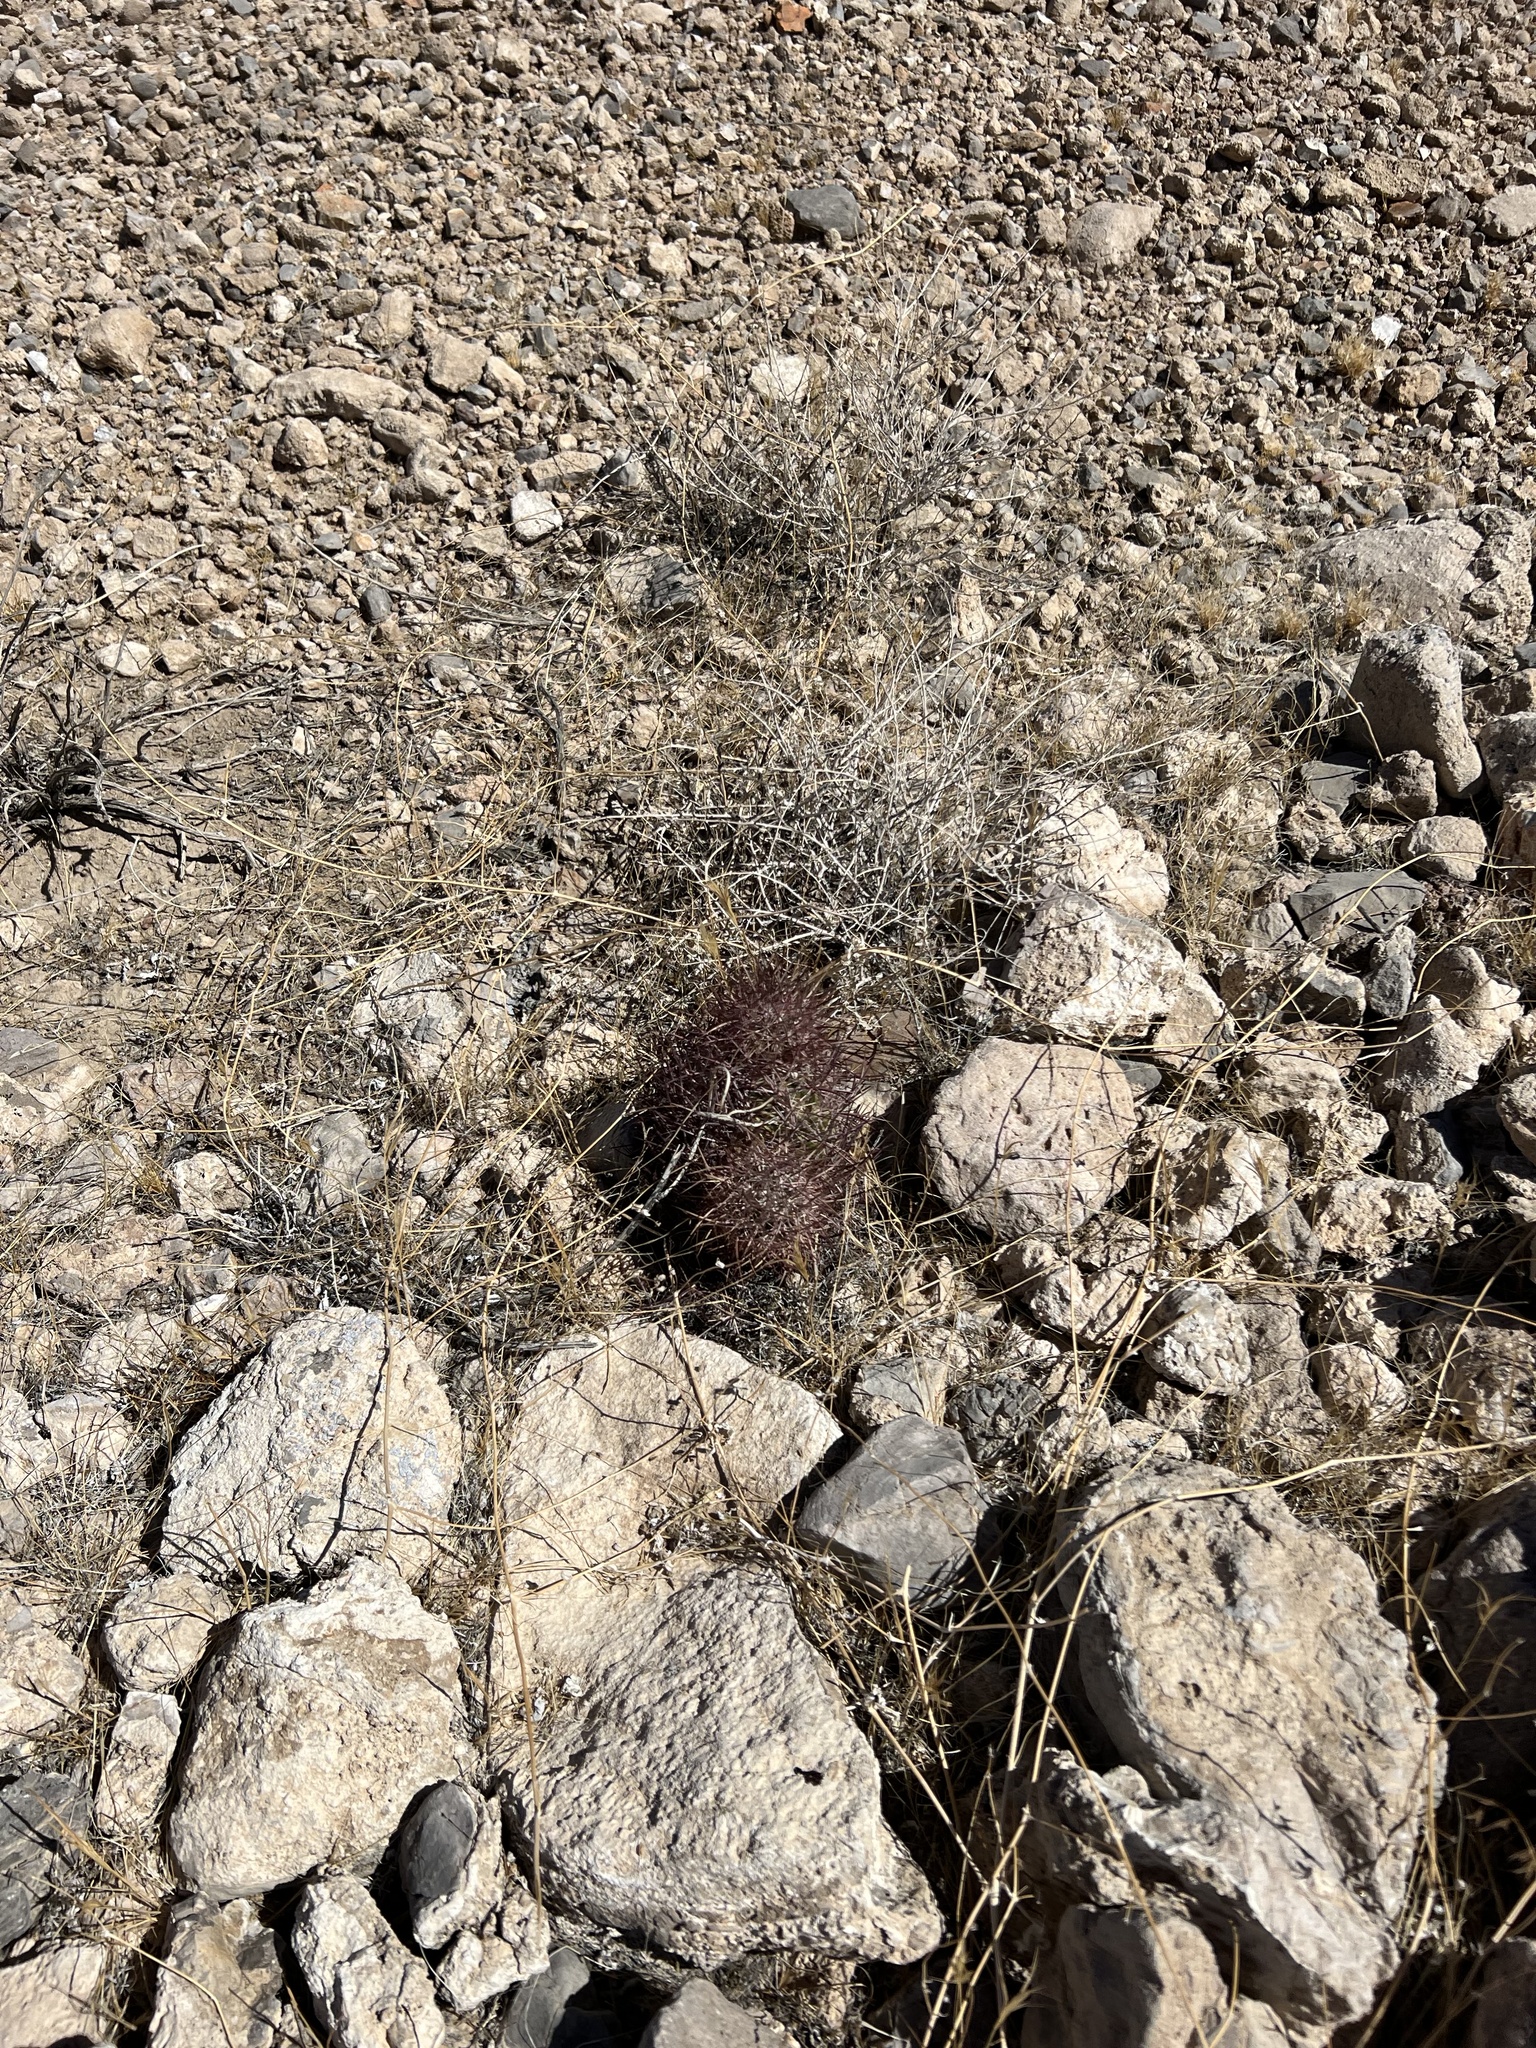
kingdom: Plantae
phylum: Tracheophyta
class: Magnoliopsida
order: Caryophyllales
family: Cactaceae
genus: Sclerocactus
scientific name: Sclerocactus johnsonii
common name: Eight-spine fishhook cactus
